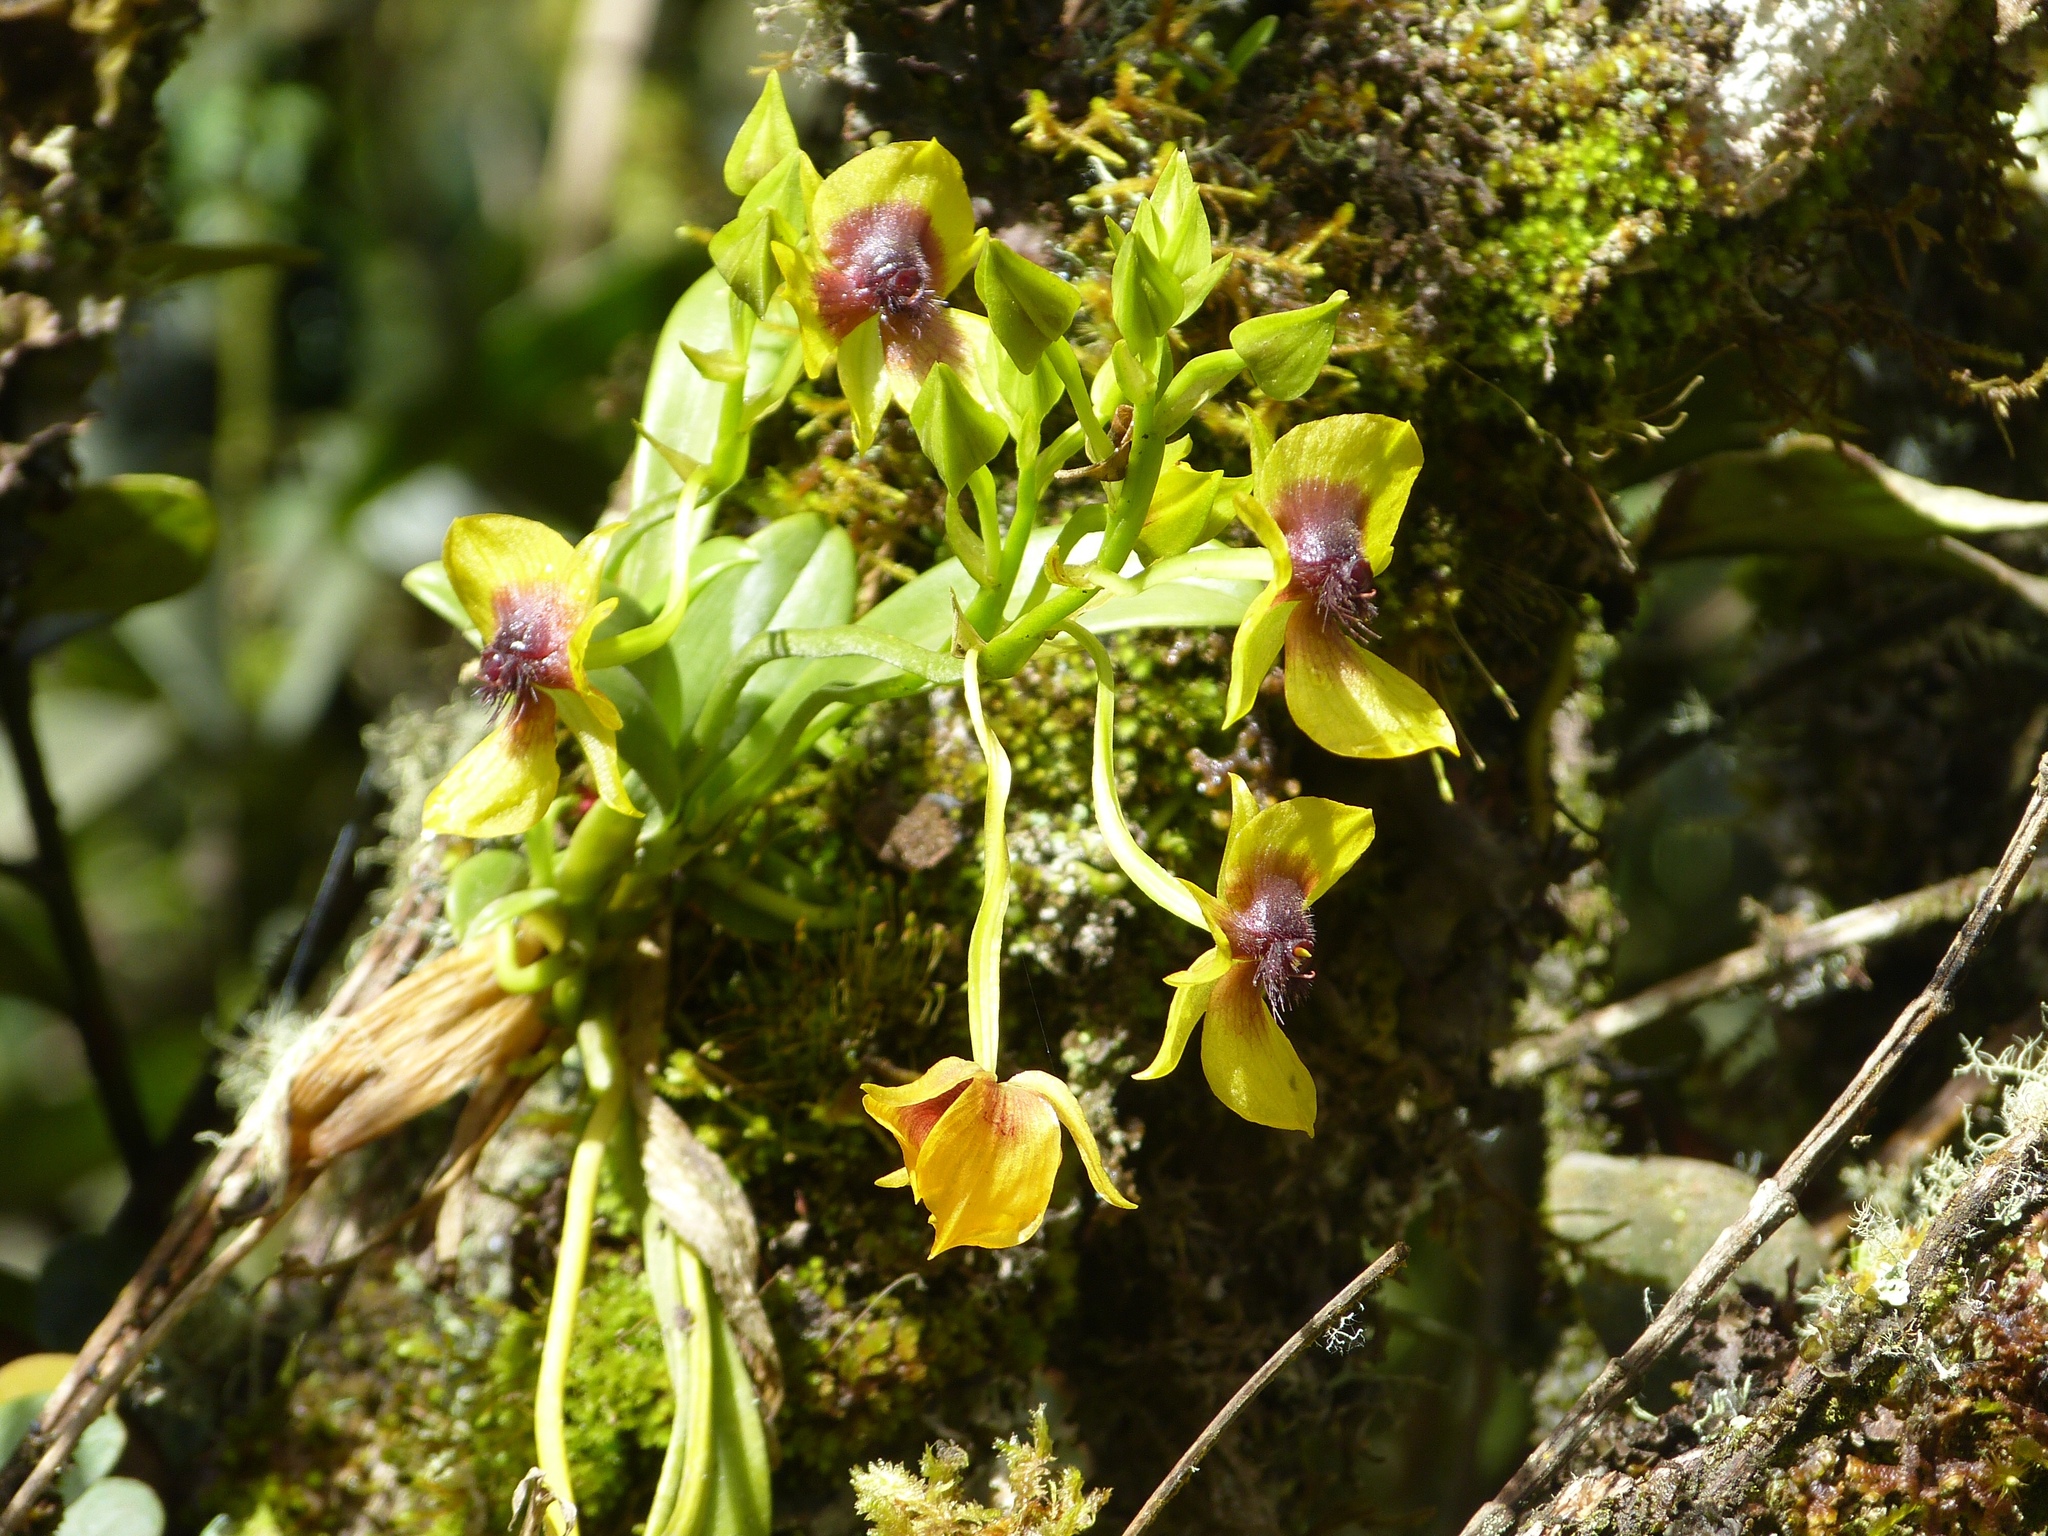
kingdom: Plantae
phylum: Tracheophyta
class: Liliopsida
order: Asparagales
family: Orchidaceae
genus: Telipogon
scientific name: Telipogon berthae
